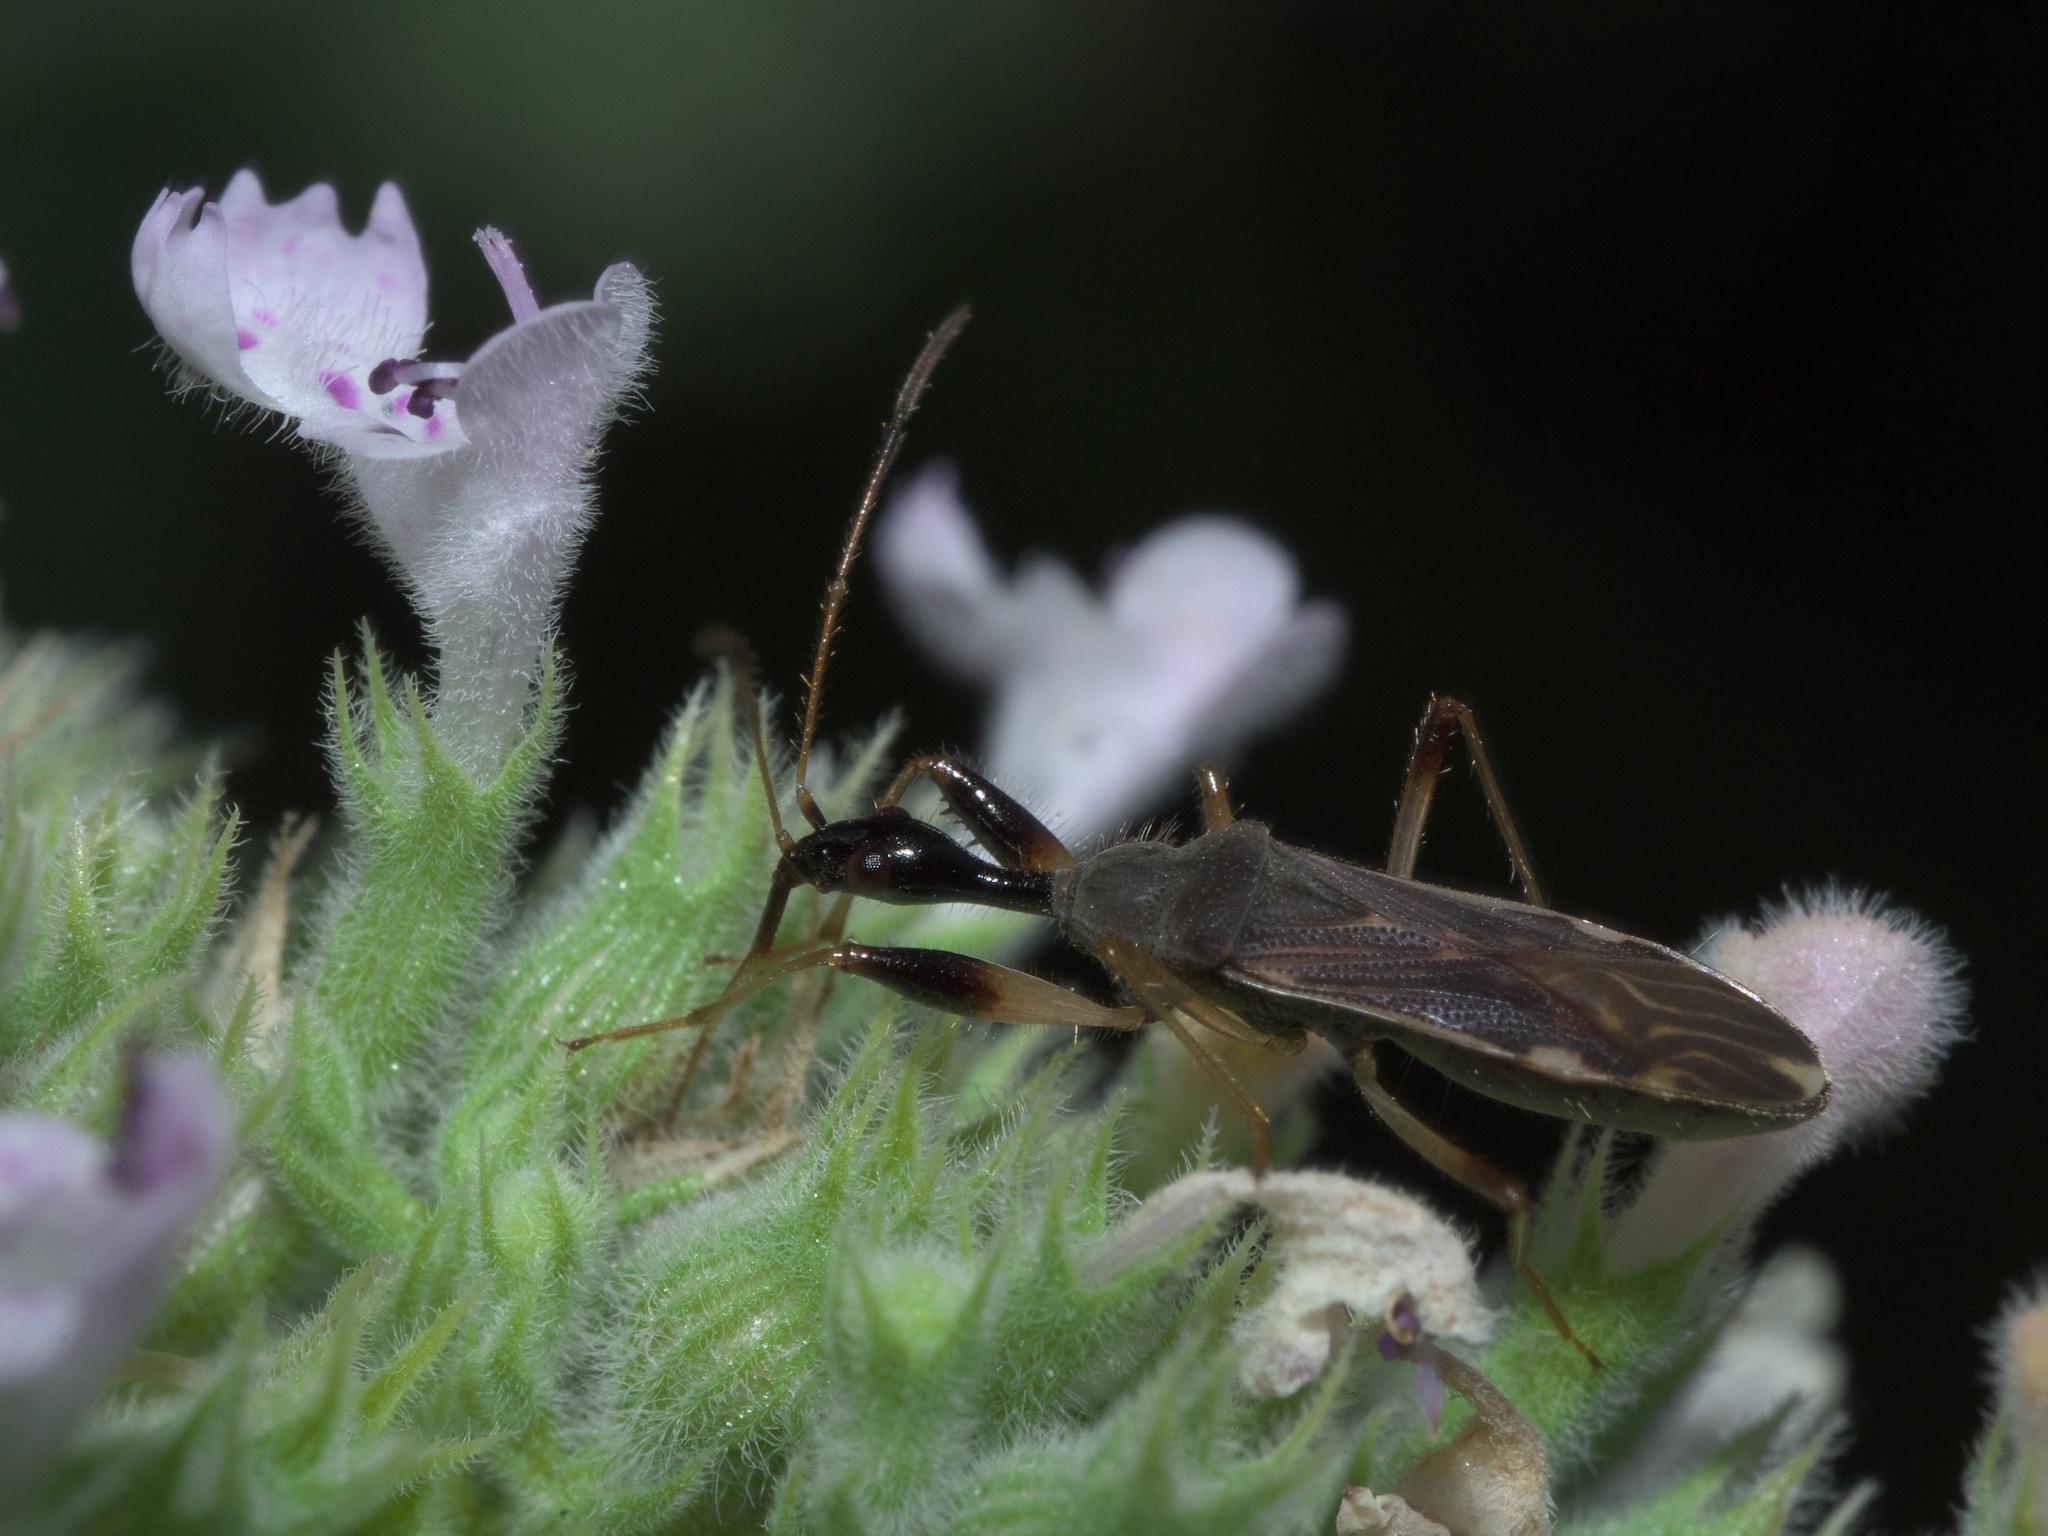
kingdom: Animalia
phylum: Arthropoda
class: Insecta
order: Hemiptera
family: Rhyparochromidae
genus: Myodocha
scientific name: Myodocha serripes
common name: Long-necked seed bug
